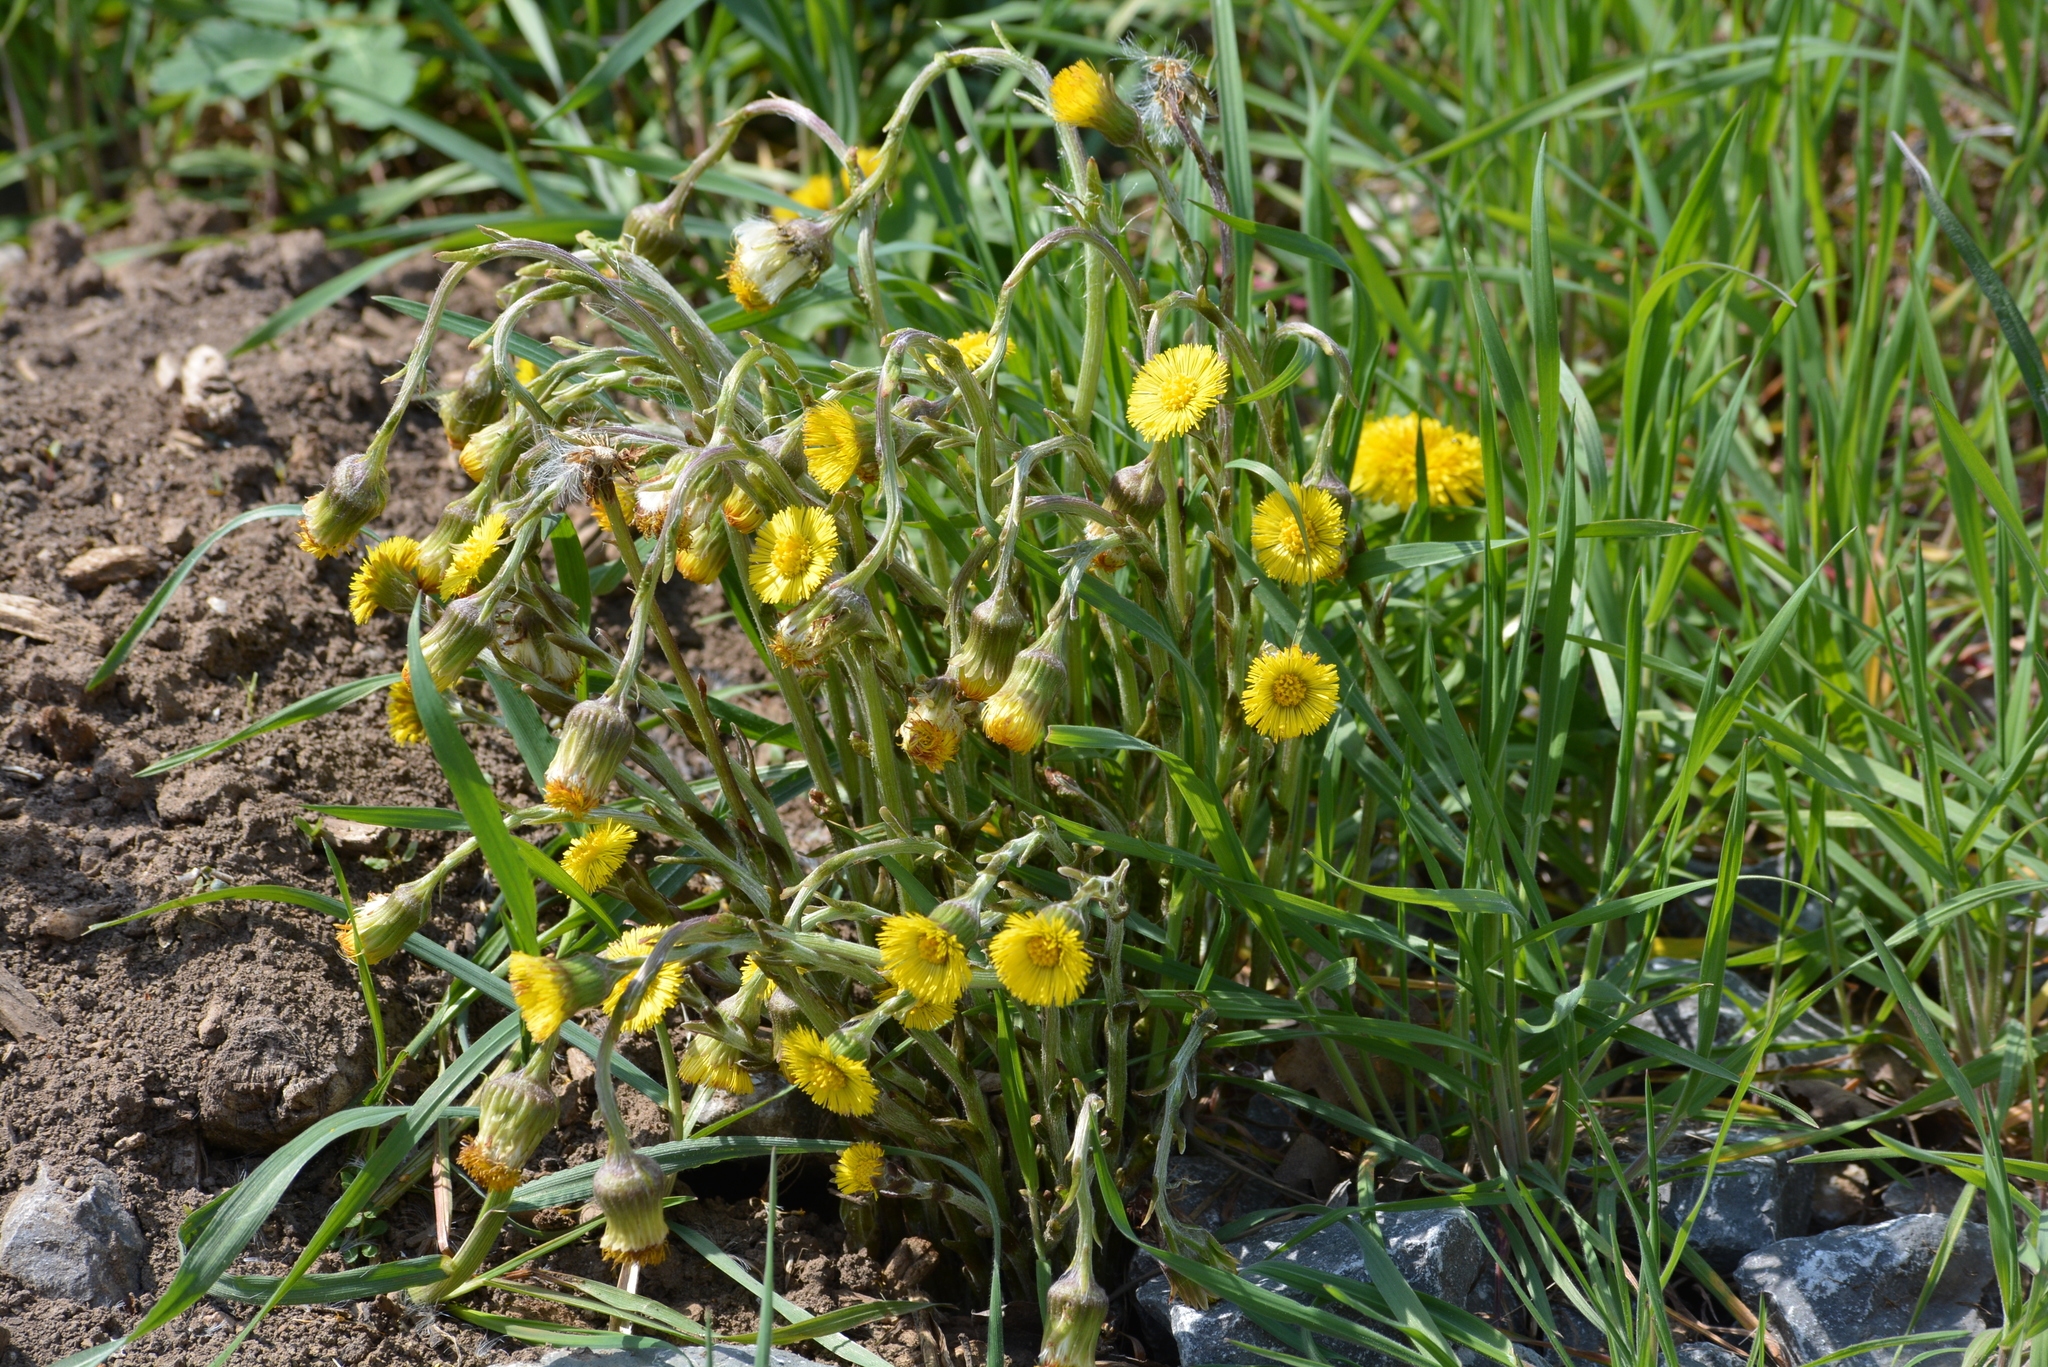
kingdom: Plantae
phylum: Tracheophyta
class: Magnoliopsida
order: Asterales
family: Asteraceae
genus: Tussilago
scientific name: Tussilago farfara
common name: Coltsfoot
